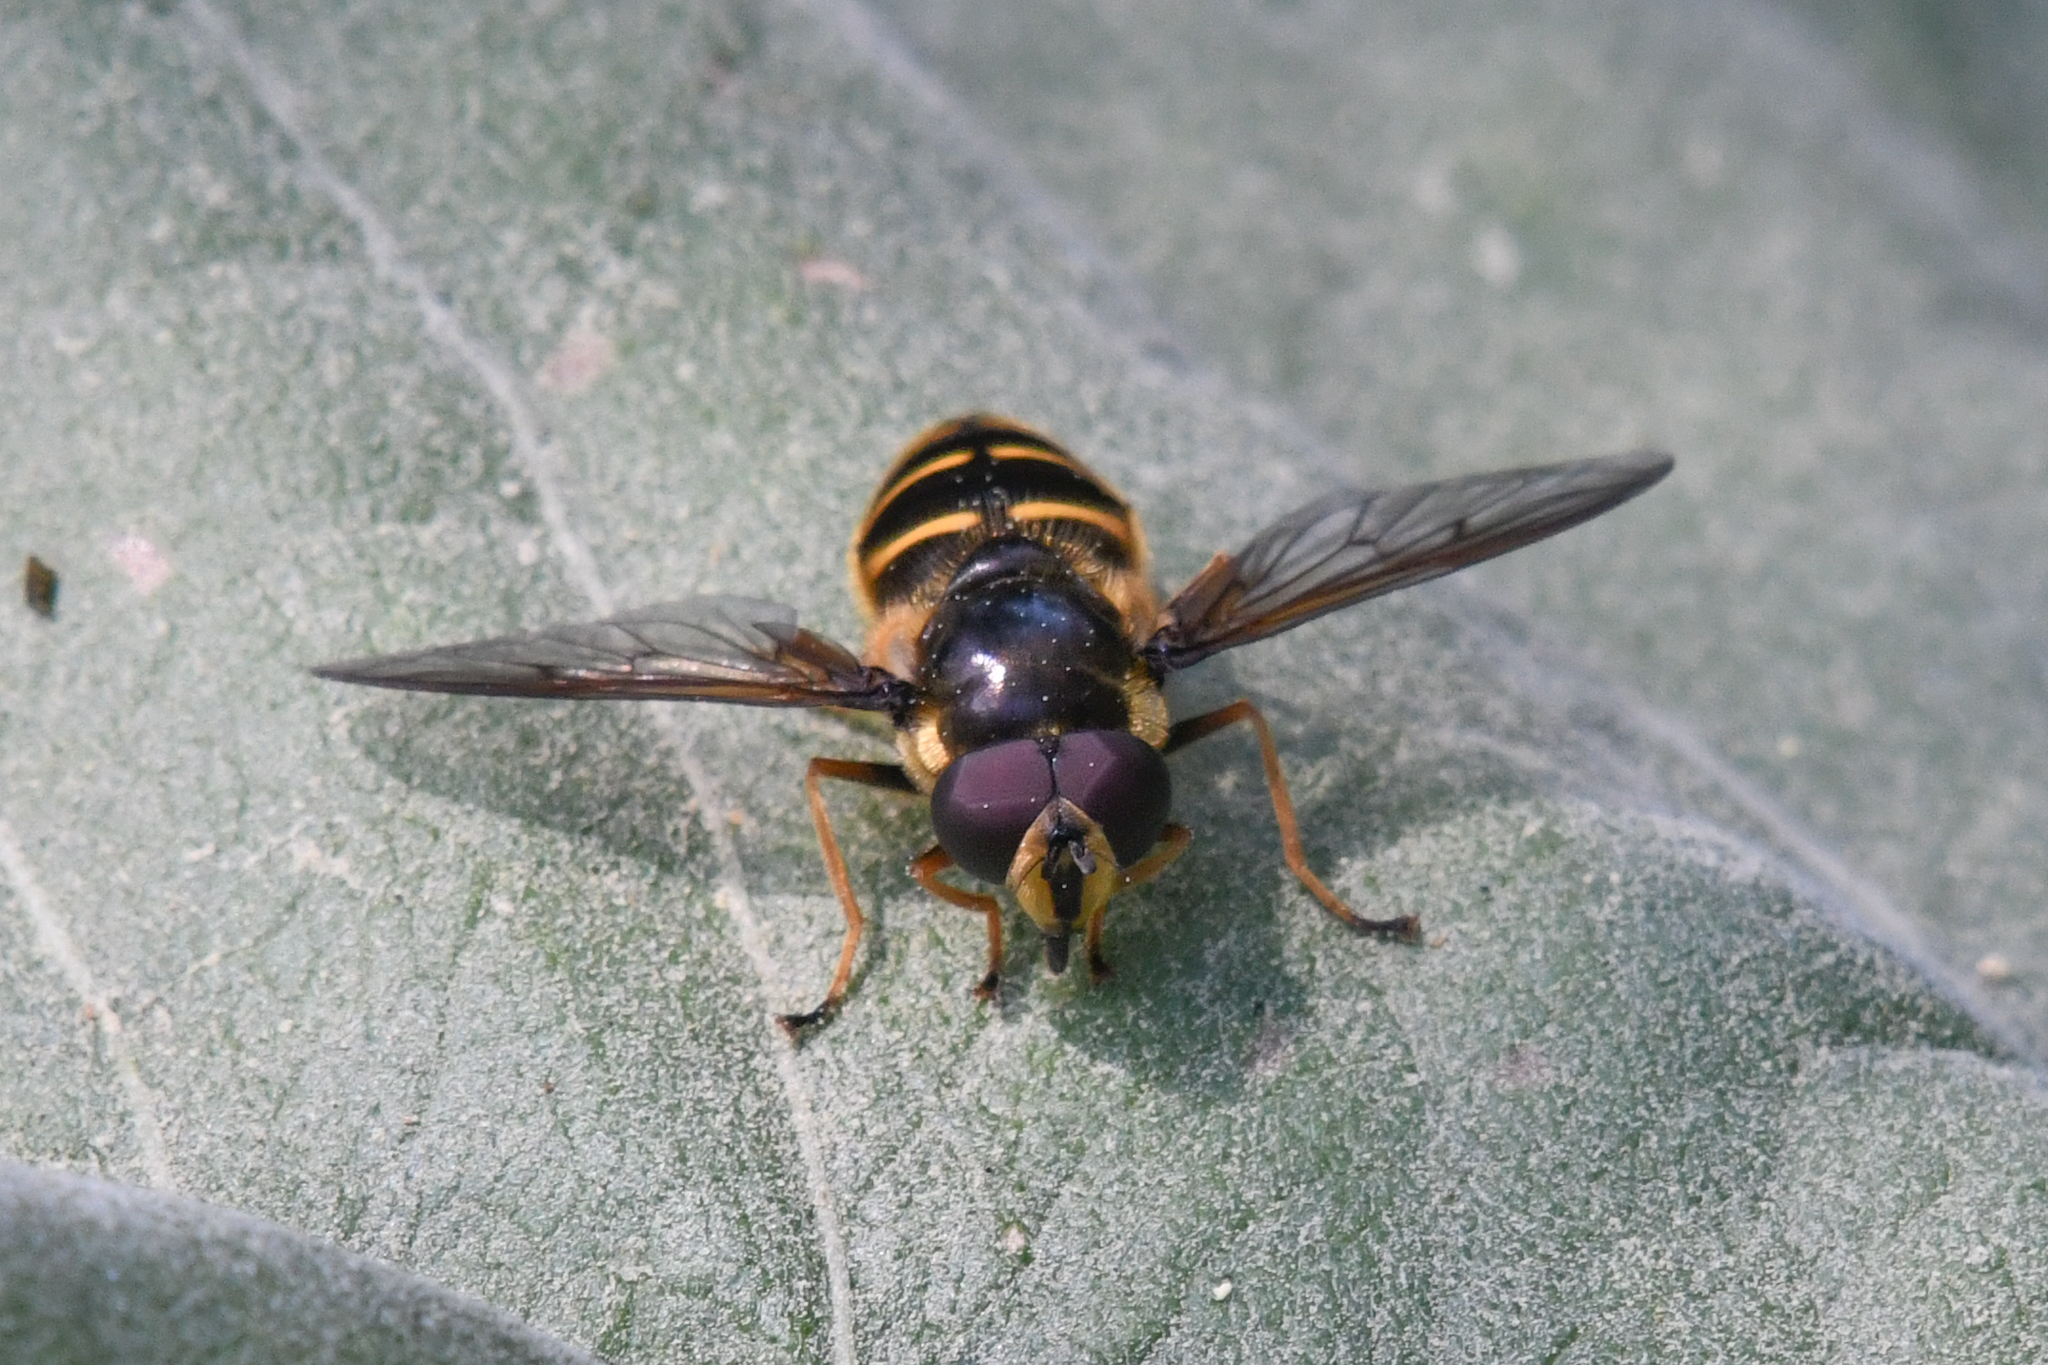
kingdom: Animalia
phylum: Arthropoda
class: Insecta
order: Diptera
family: Syrphidae
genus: Sericomyia
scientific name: Sericomyia chalcopyga
